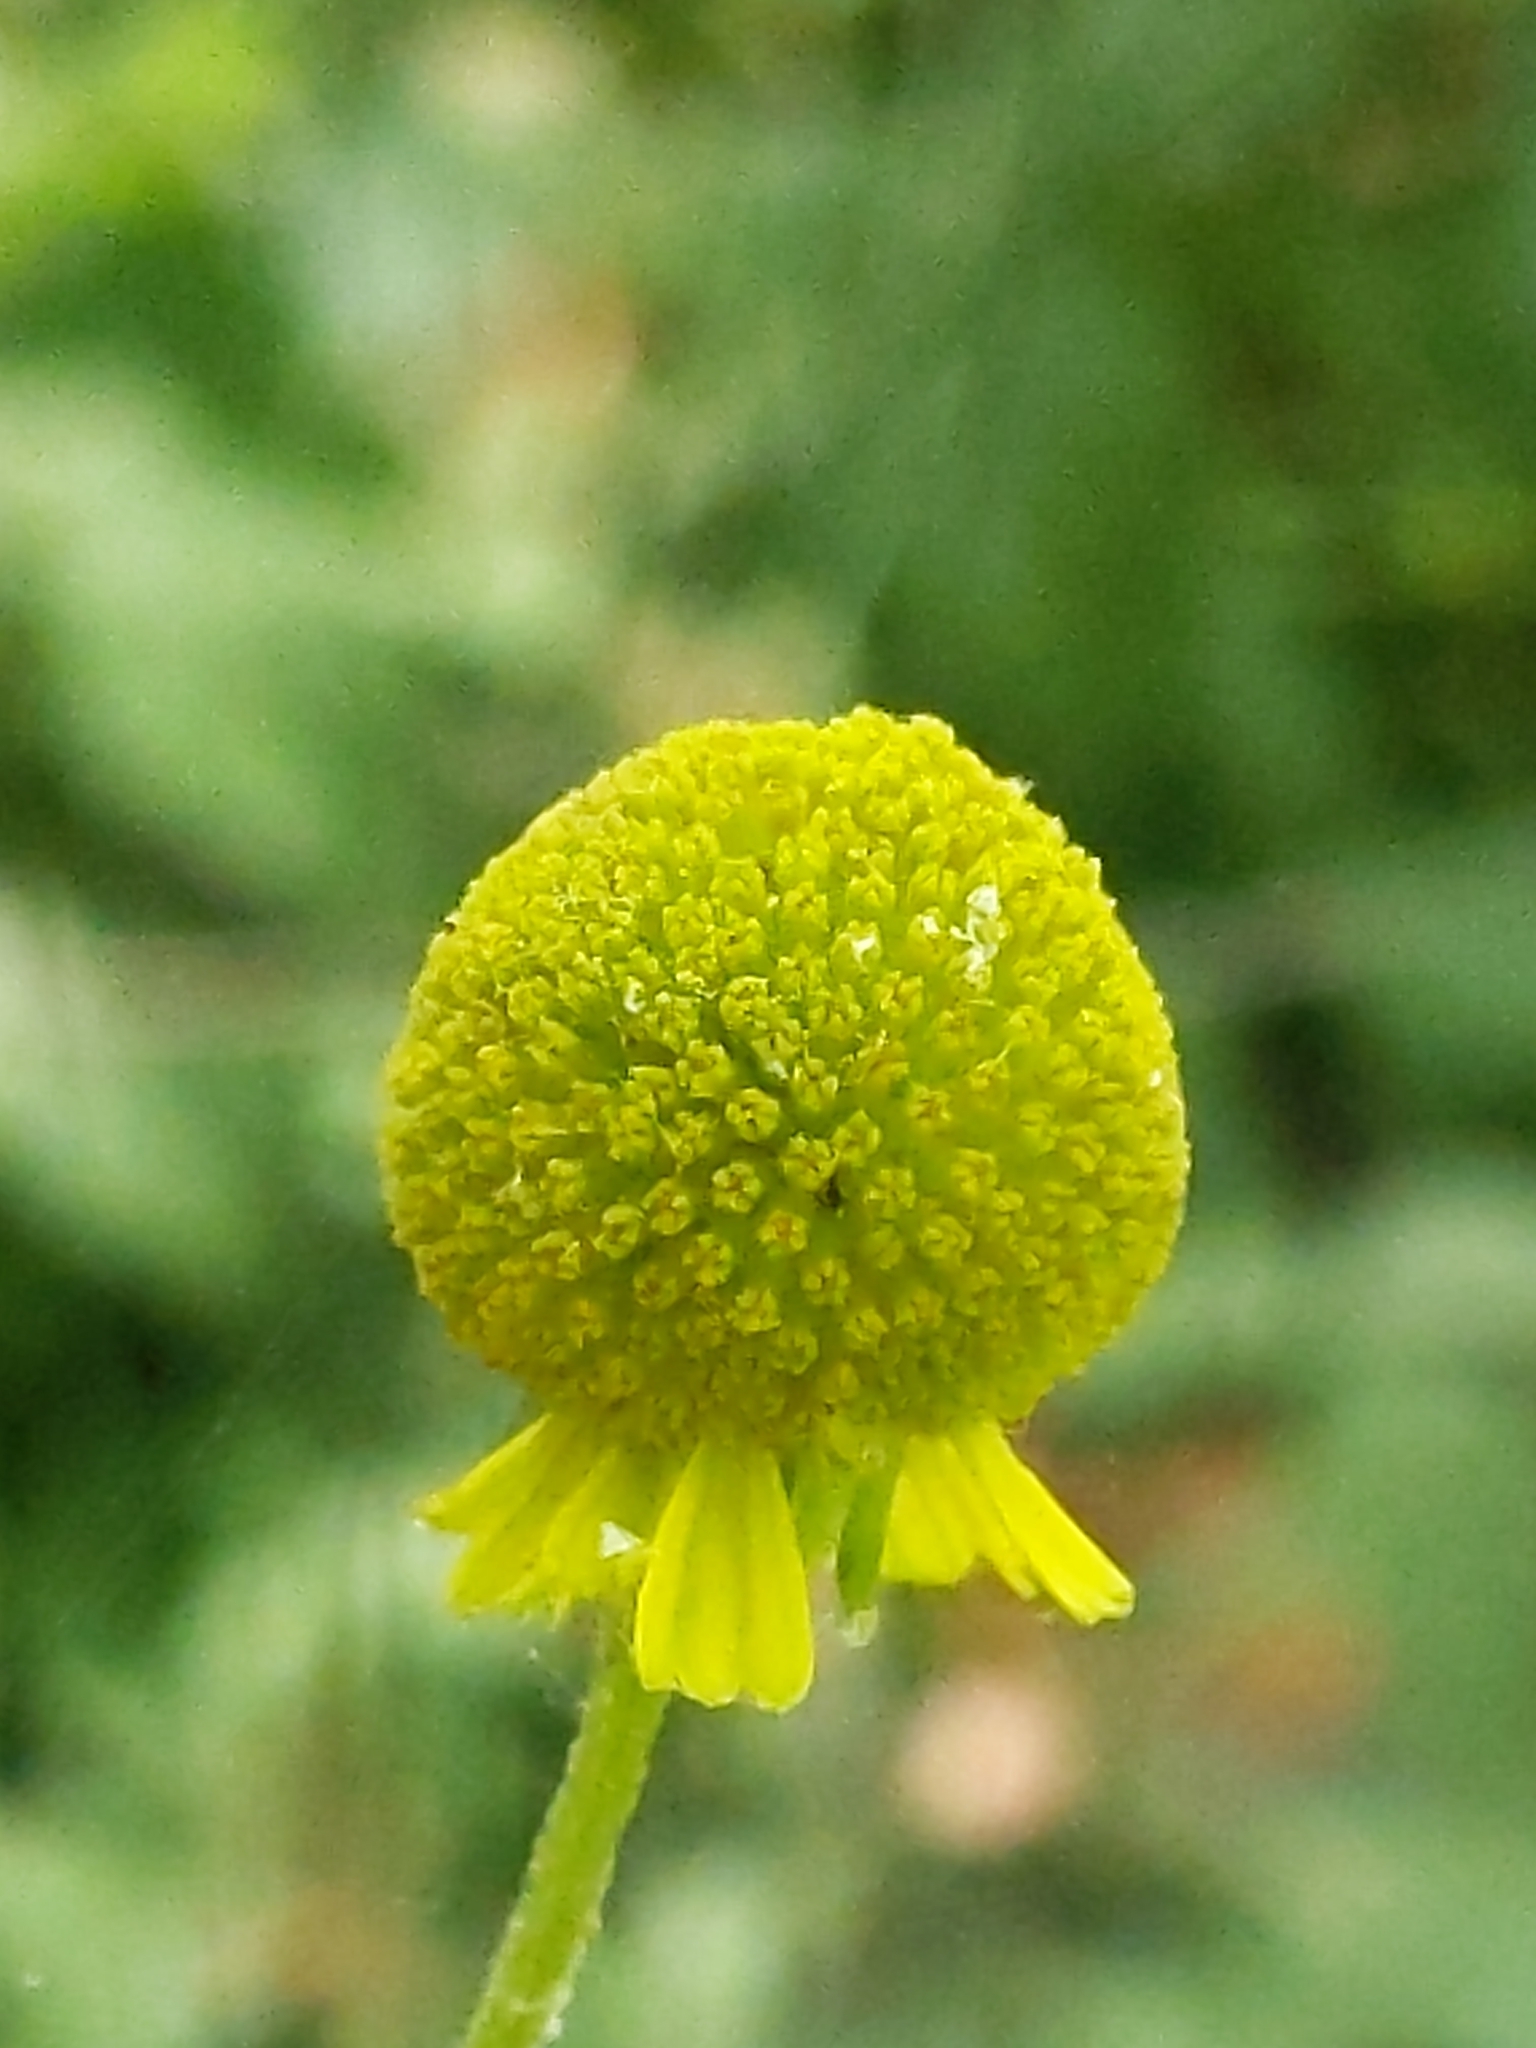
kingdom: Plantae
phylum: Tracheophyta
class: Magnoliopsida
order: Asterales
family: Asteraceae
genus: Helenium
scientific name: Helenium puberulum
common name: Sneezewort
